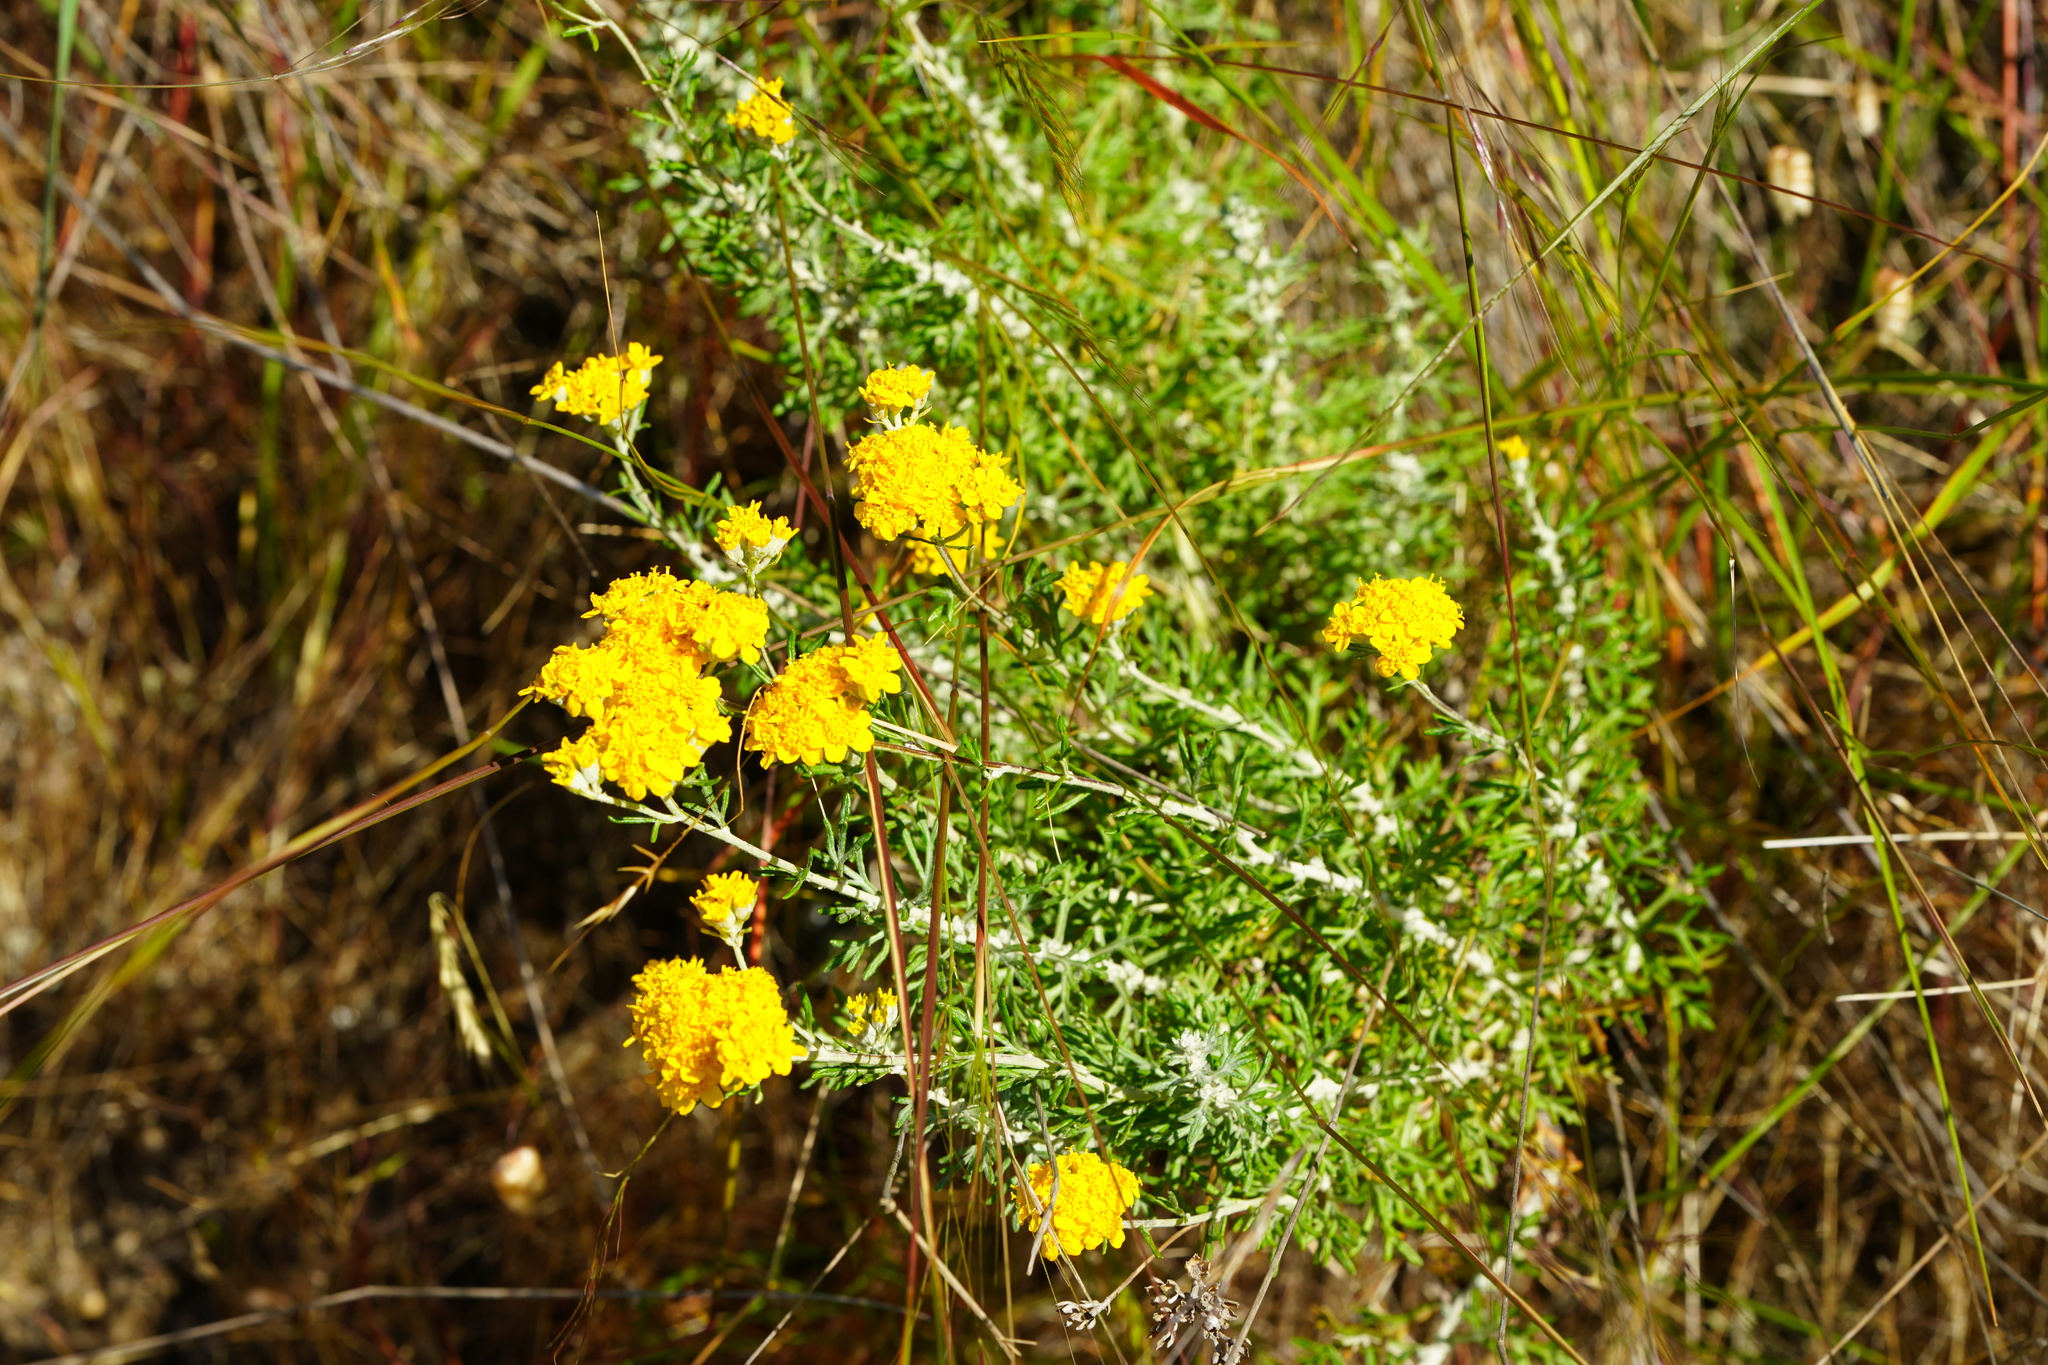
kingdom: Plantae
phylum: Tracheophyta
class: Magnoliopsida
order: Asterales
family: Asteraceae
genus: Eriophyllum
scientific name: Eriophyllum confertiflorum
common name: Golden-yarrow
